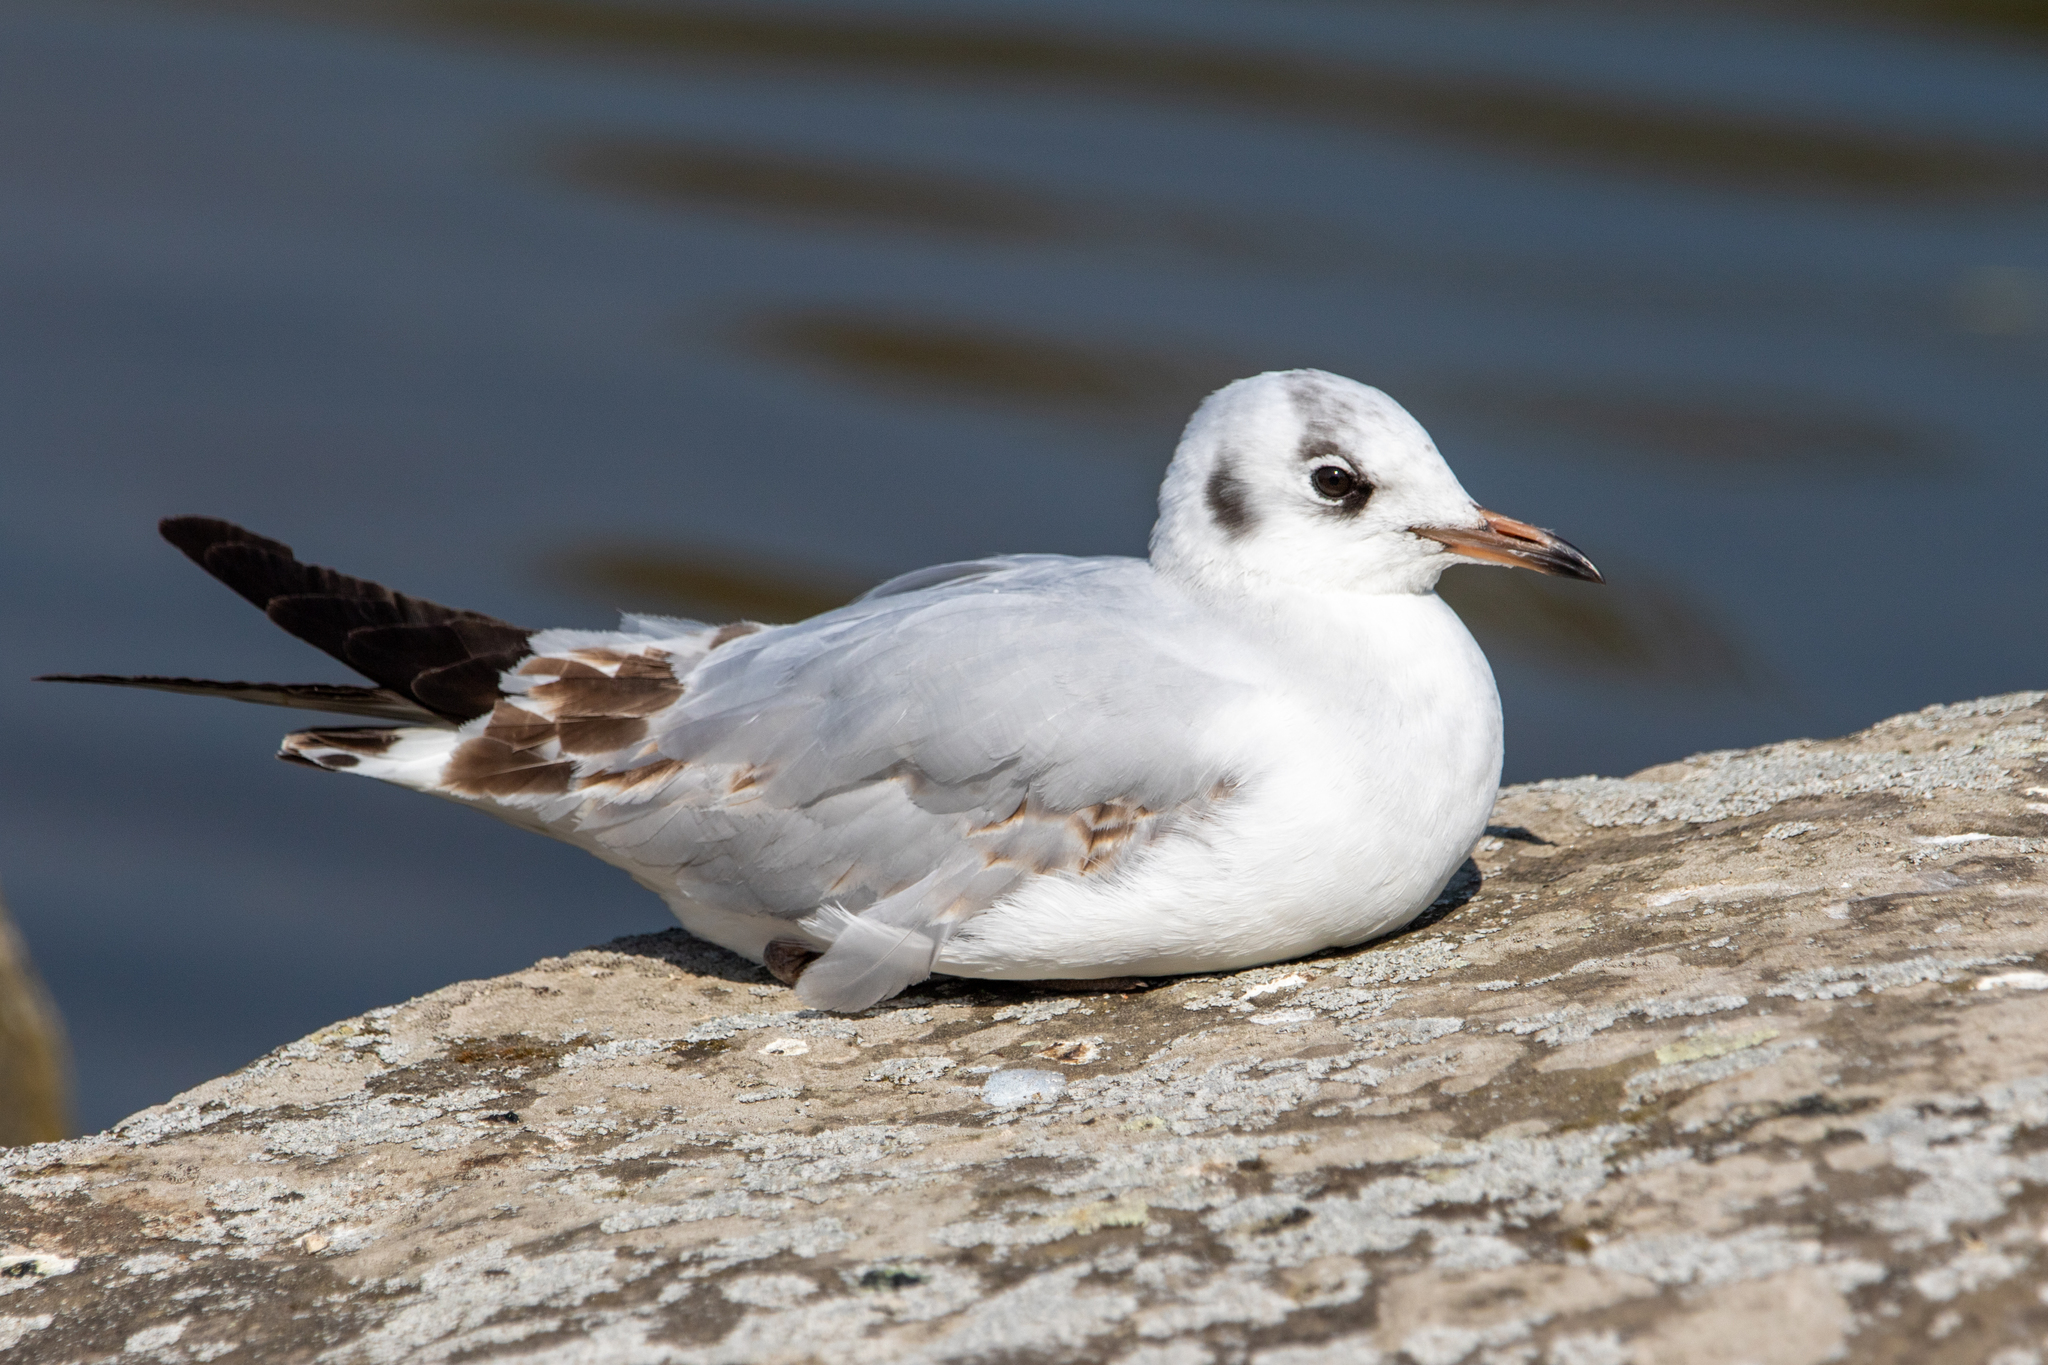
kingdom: Animalia
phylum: Chordata
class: Aves
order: Charadriiformes
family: Laridae
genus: Chroicocephalus
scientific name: Chroicocephalus ridibundus
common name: Black-headed gull
